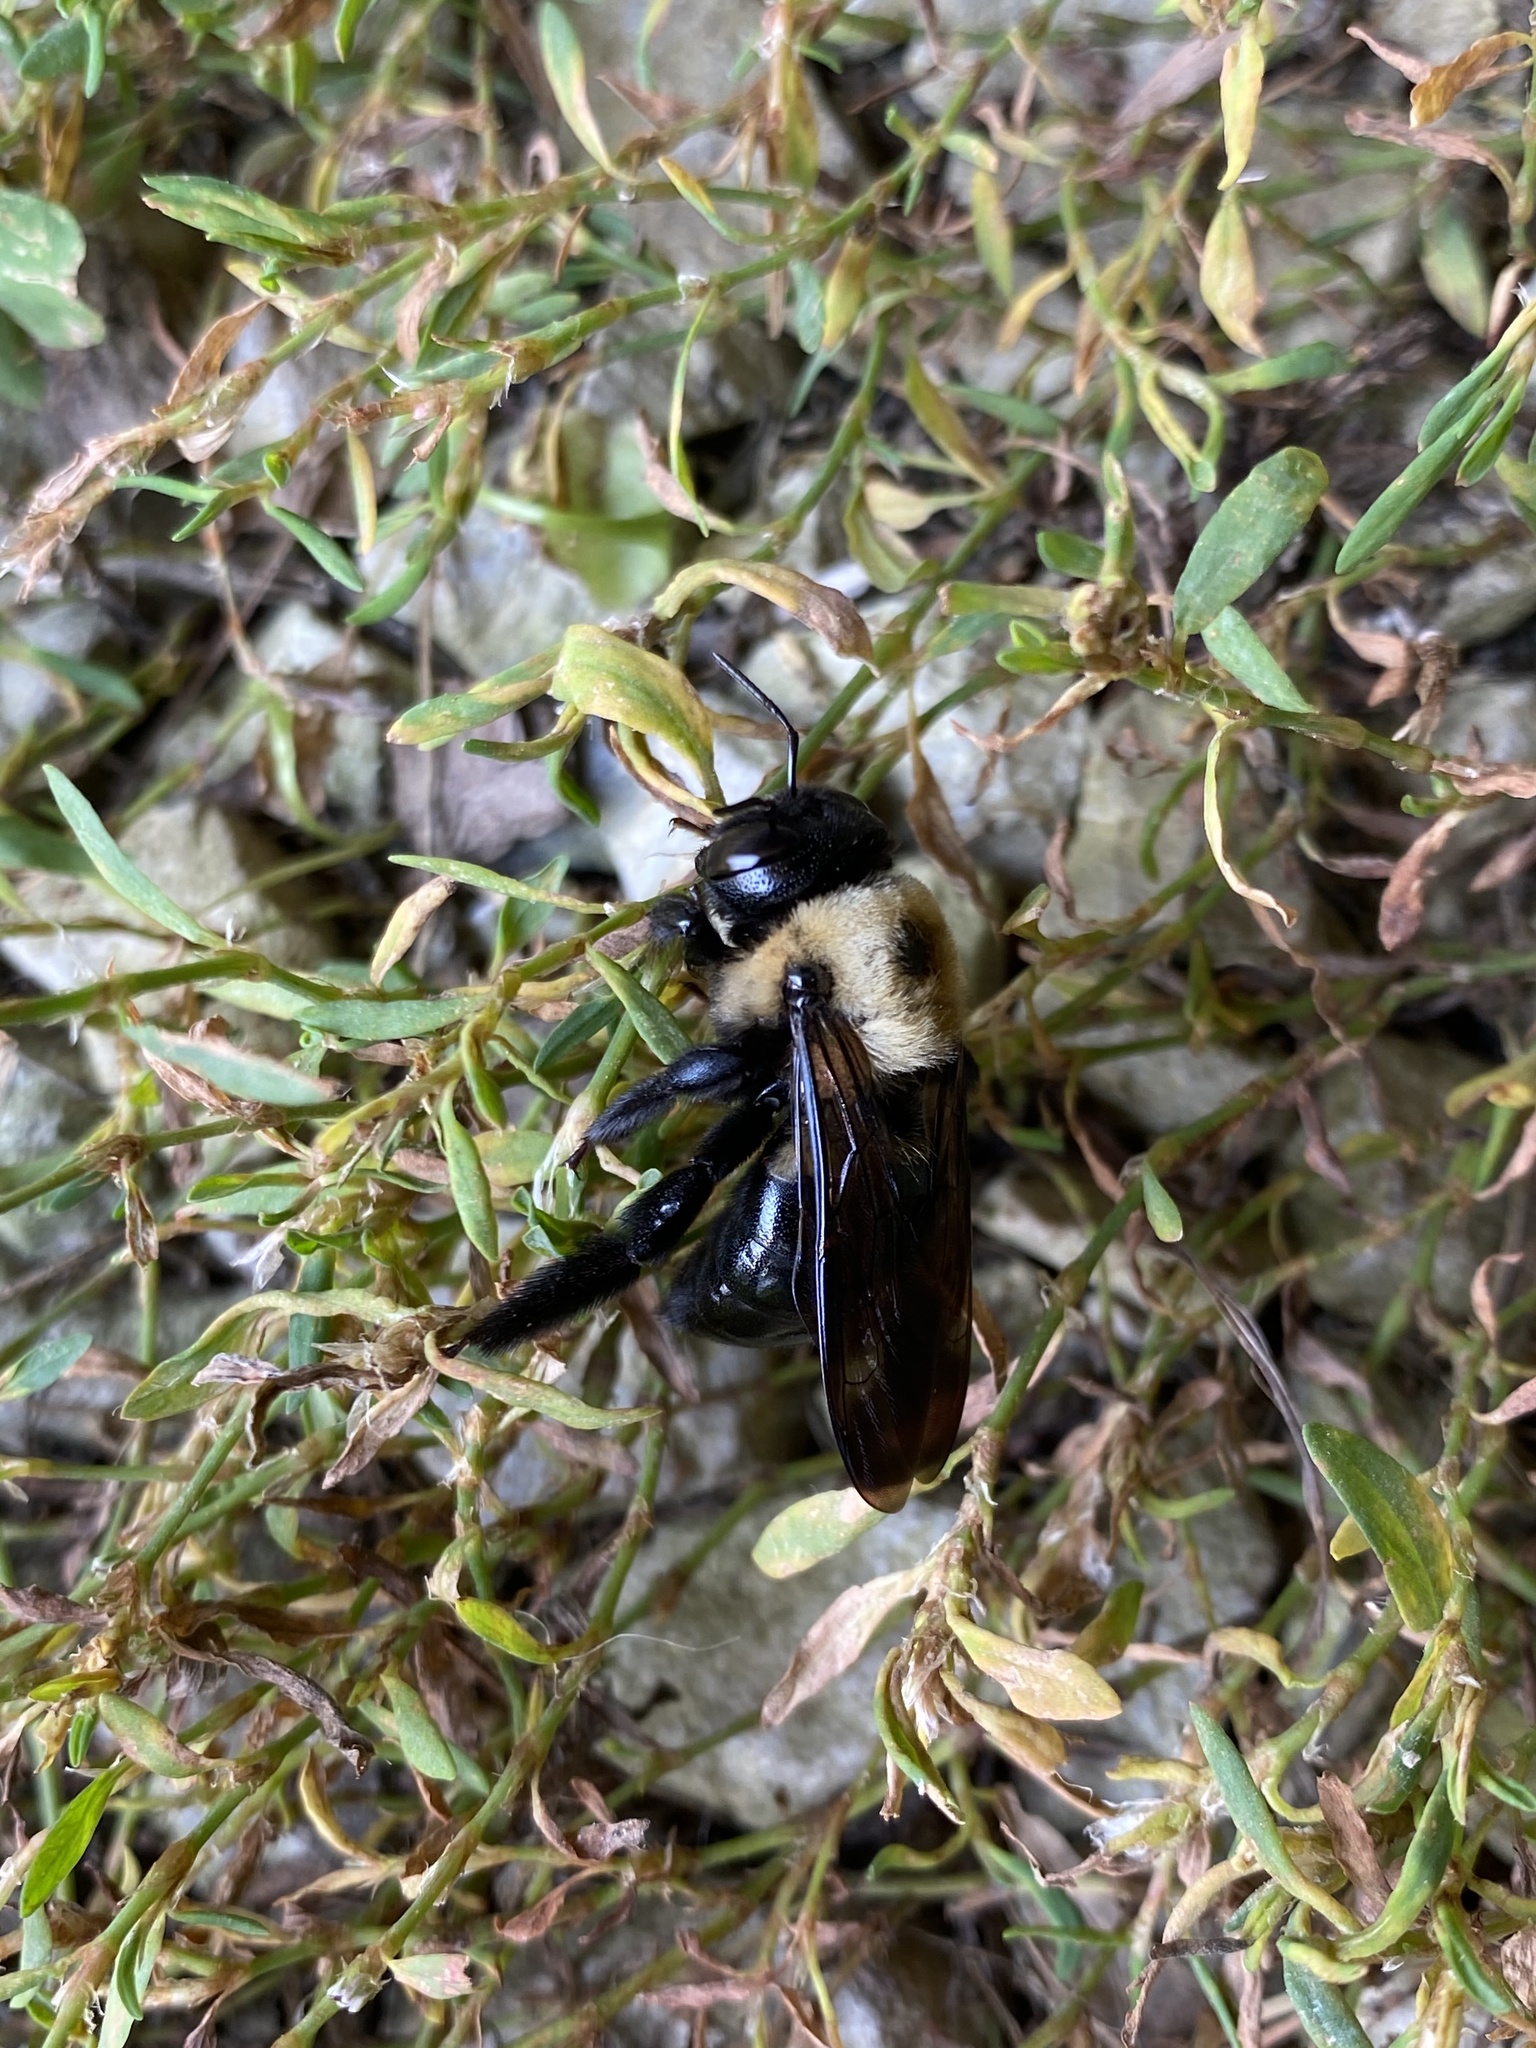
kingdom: Animalia
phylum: Arthropoda
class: Insecta
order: Hymenoptera
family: Apidae
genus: Xylocopa
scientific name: Xylocopa virginica
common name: Carpenter bee
